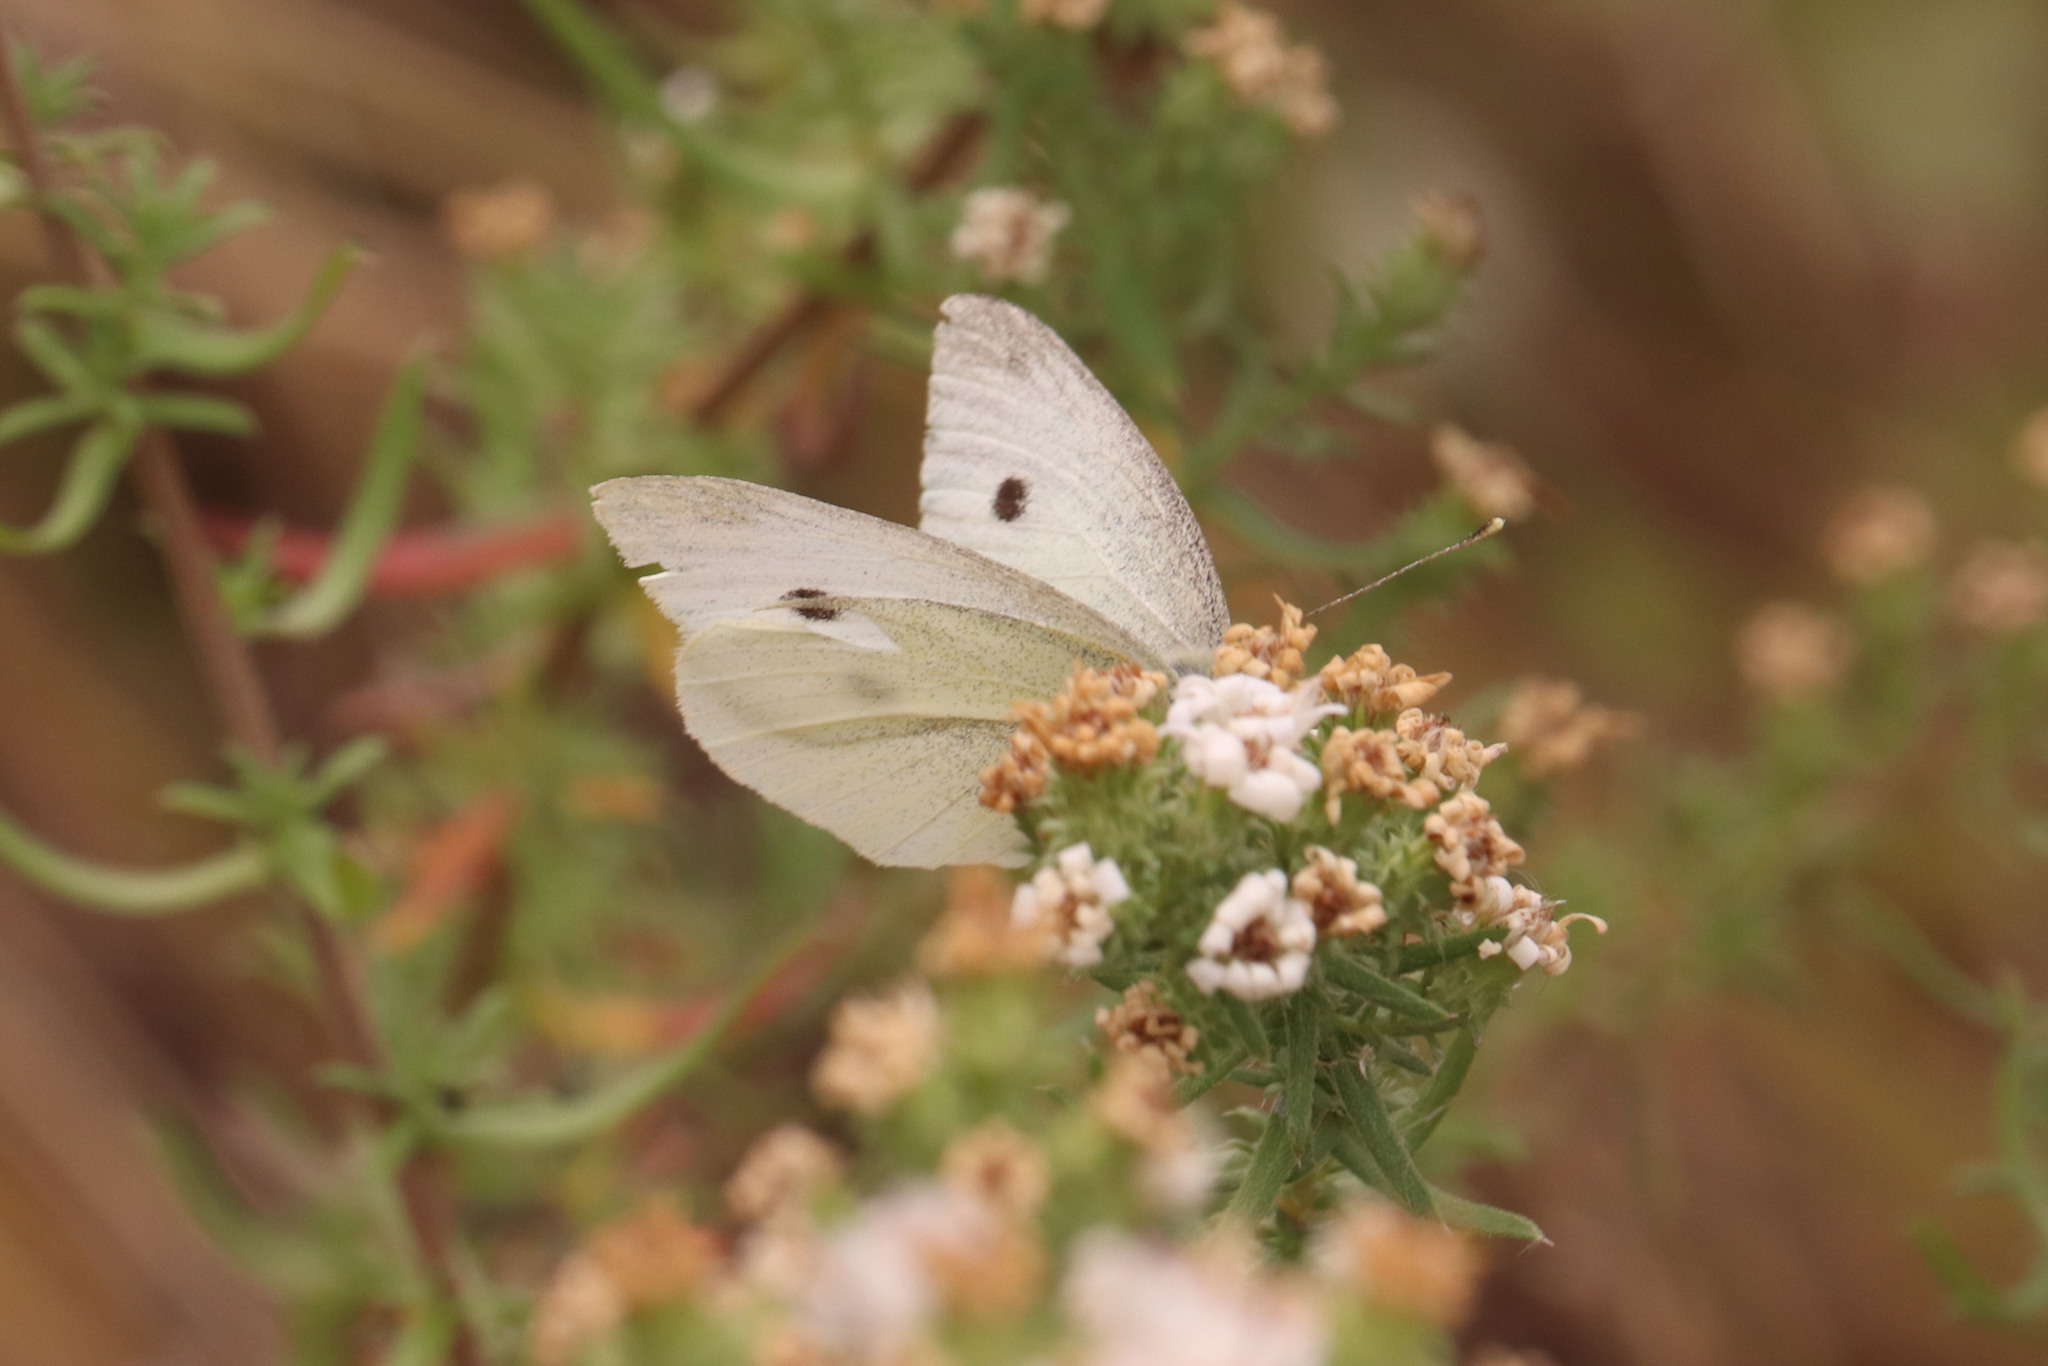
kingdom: Animalia
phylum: Arthropoda
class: Insecta
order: Lepidoptera
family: Pieridae
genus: Pieris
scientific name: Pieris rapae
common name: Small white
